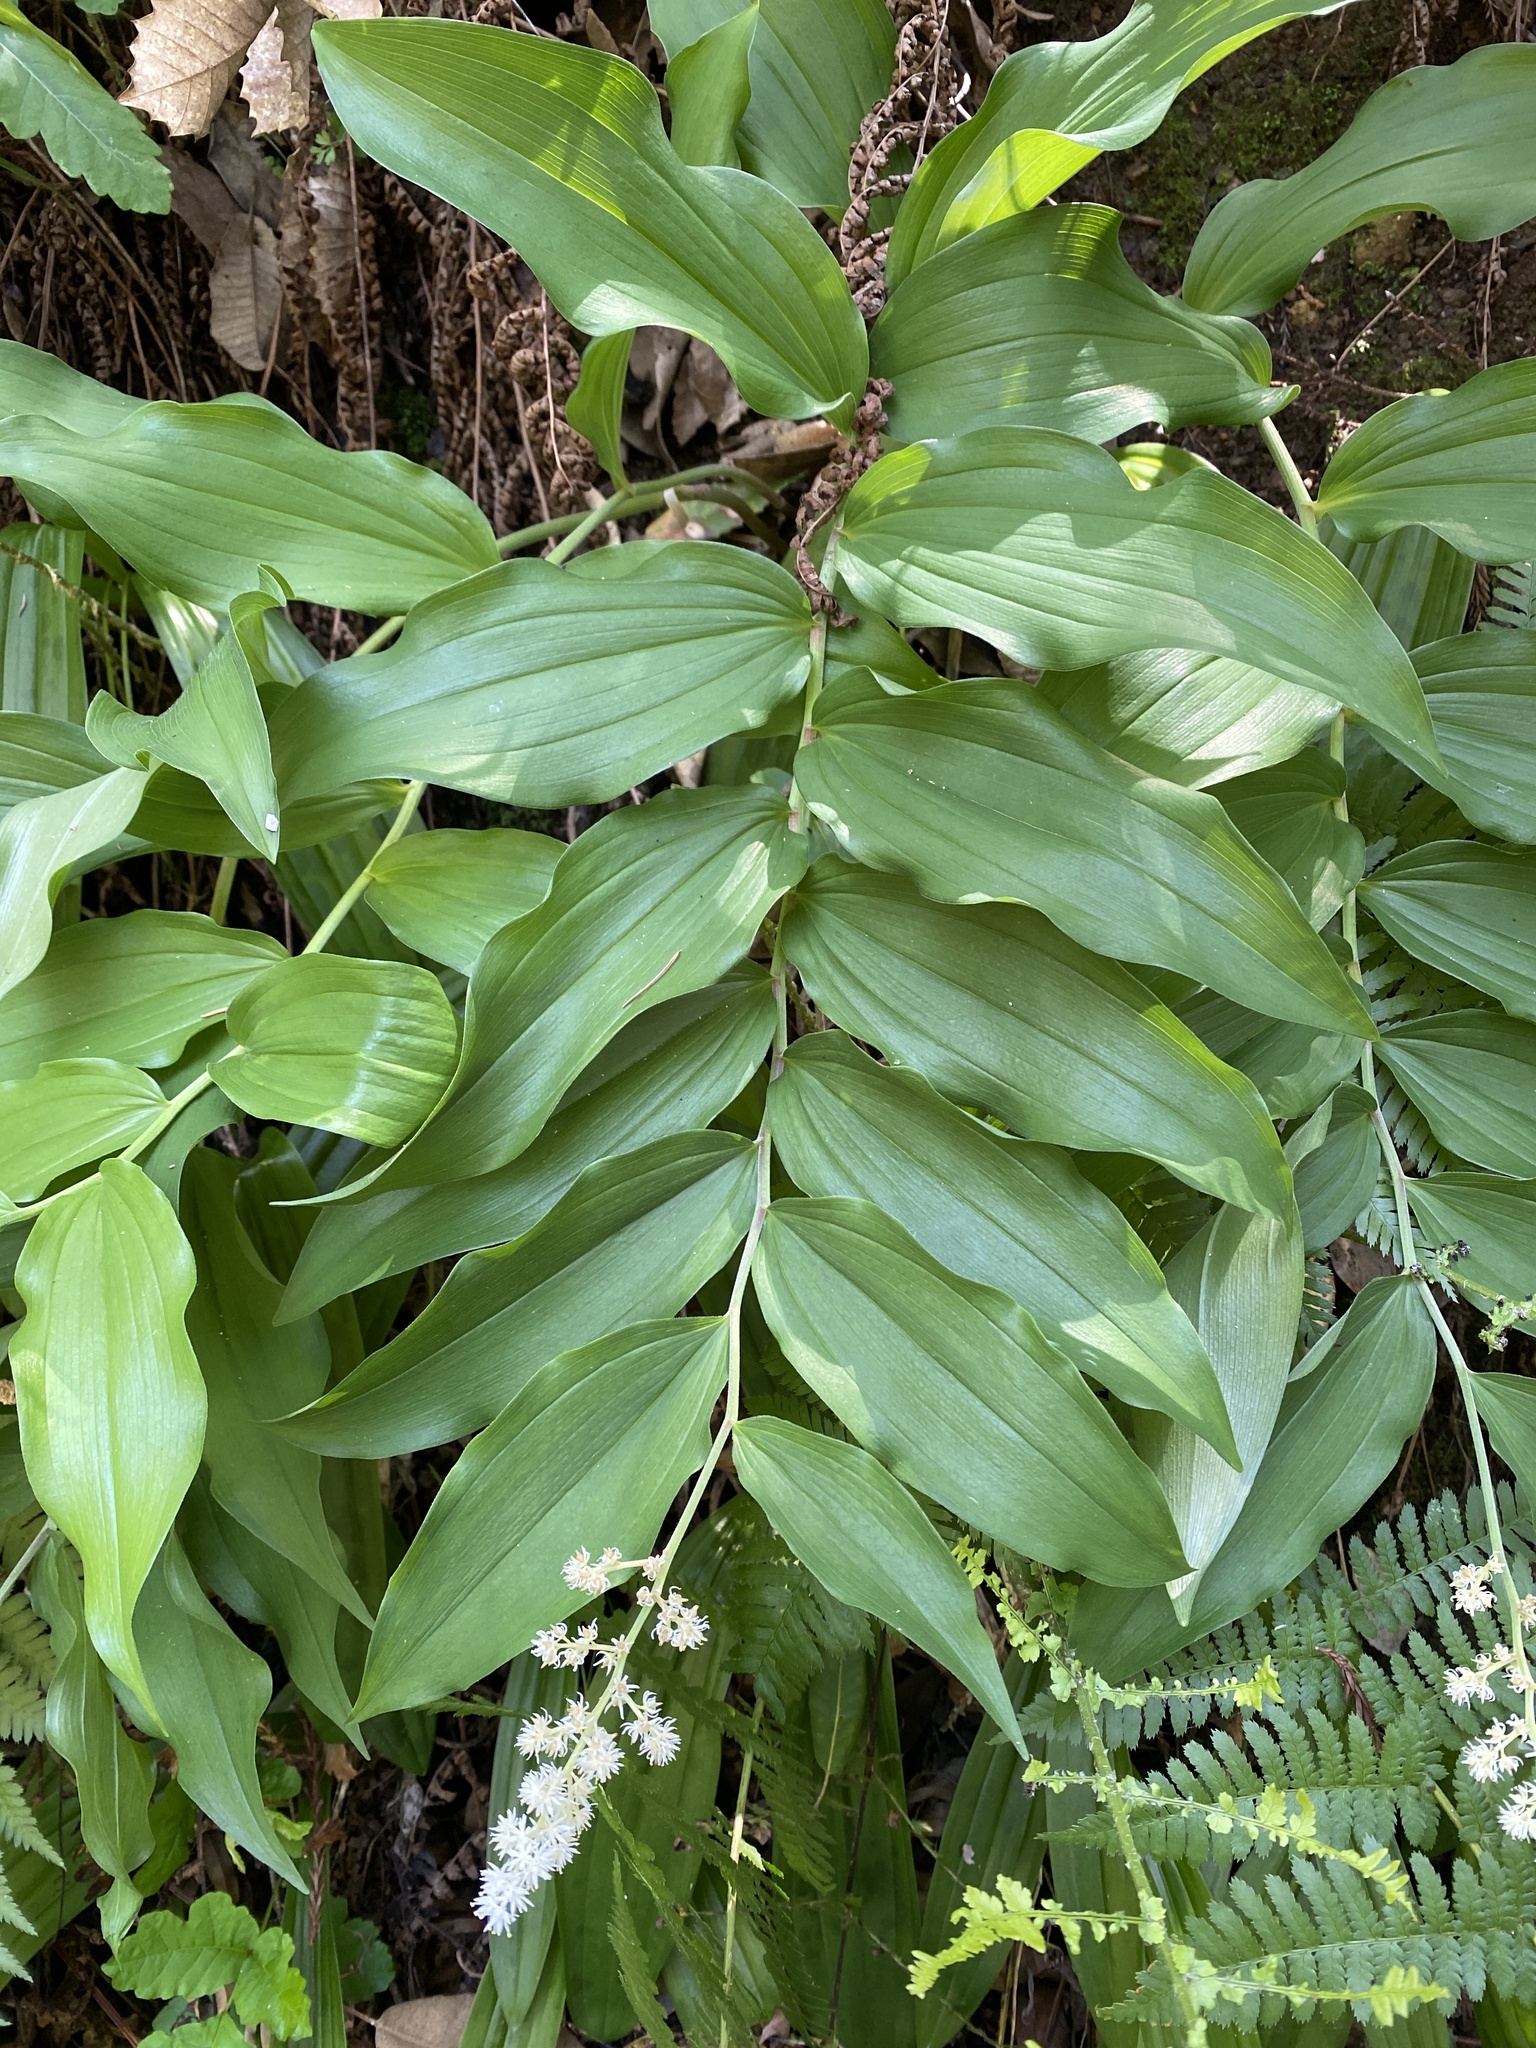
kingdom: Plantae
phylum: Tracheophyta
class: Liliopsida
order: Asparagales
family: Asparagaceae
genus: Maianthemum
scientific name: Maianthemum racemosum
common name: False spikenard
